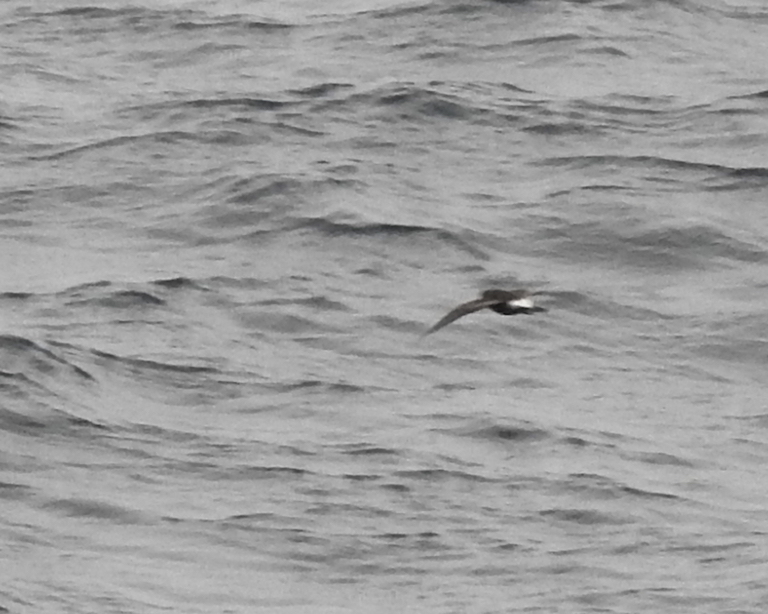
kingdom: Animalia
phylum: Chordata
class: Aves
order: Procellariiformes
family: Hydrobatidae
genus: Oceanodroma
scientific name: Oceanodroma leucorhoa
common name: Leach's storm-petrel
